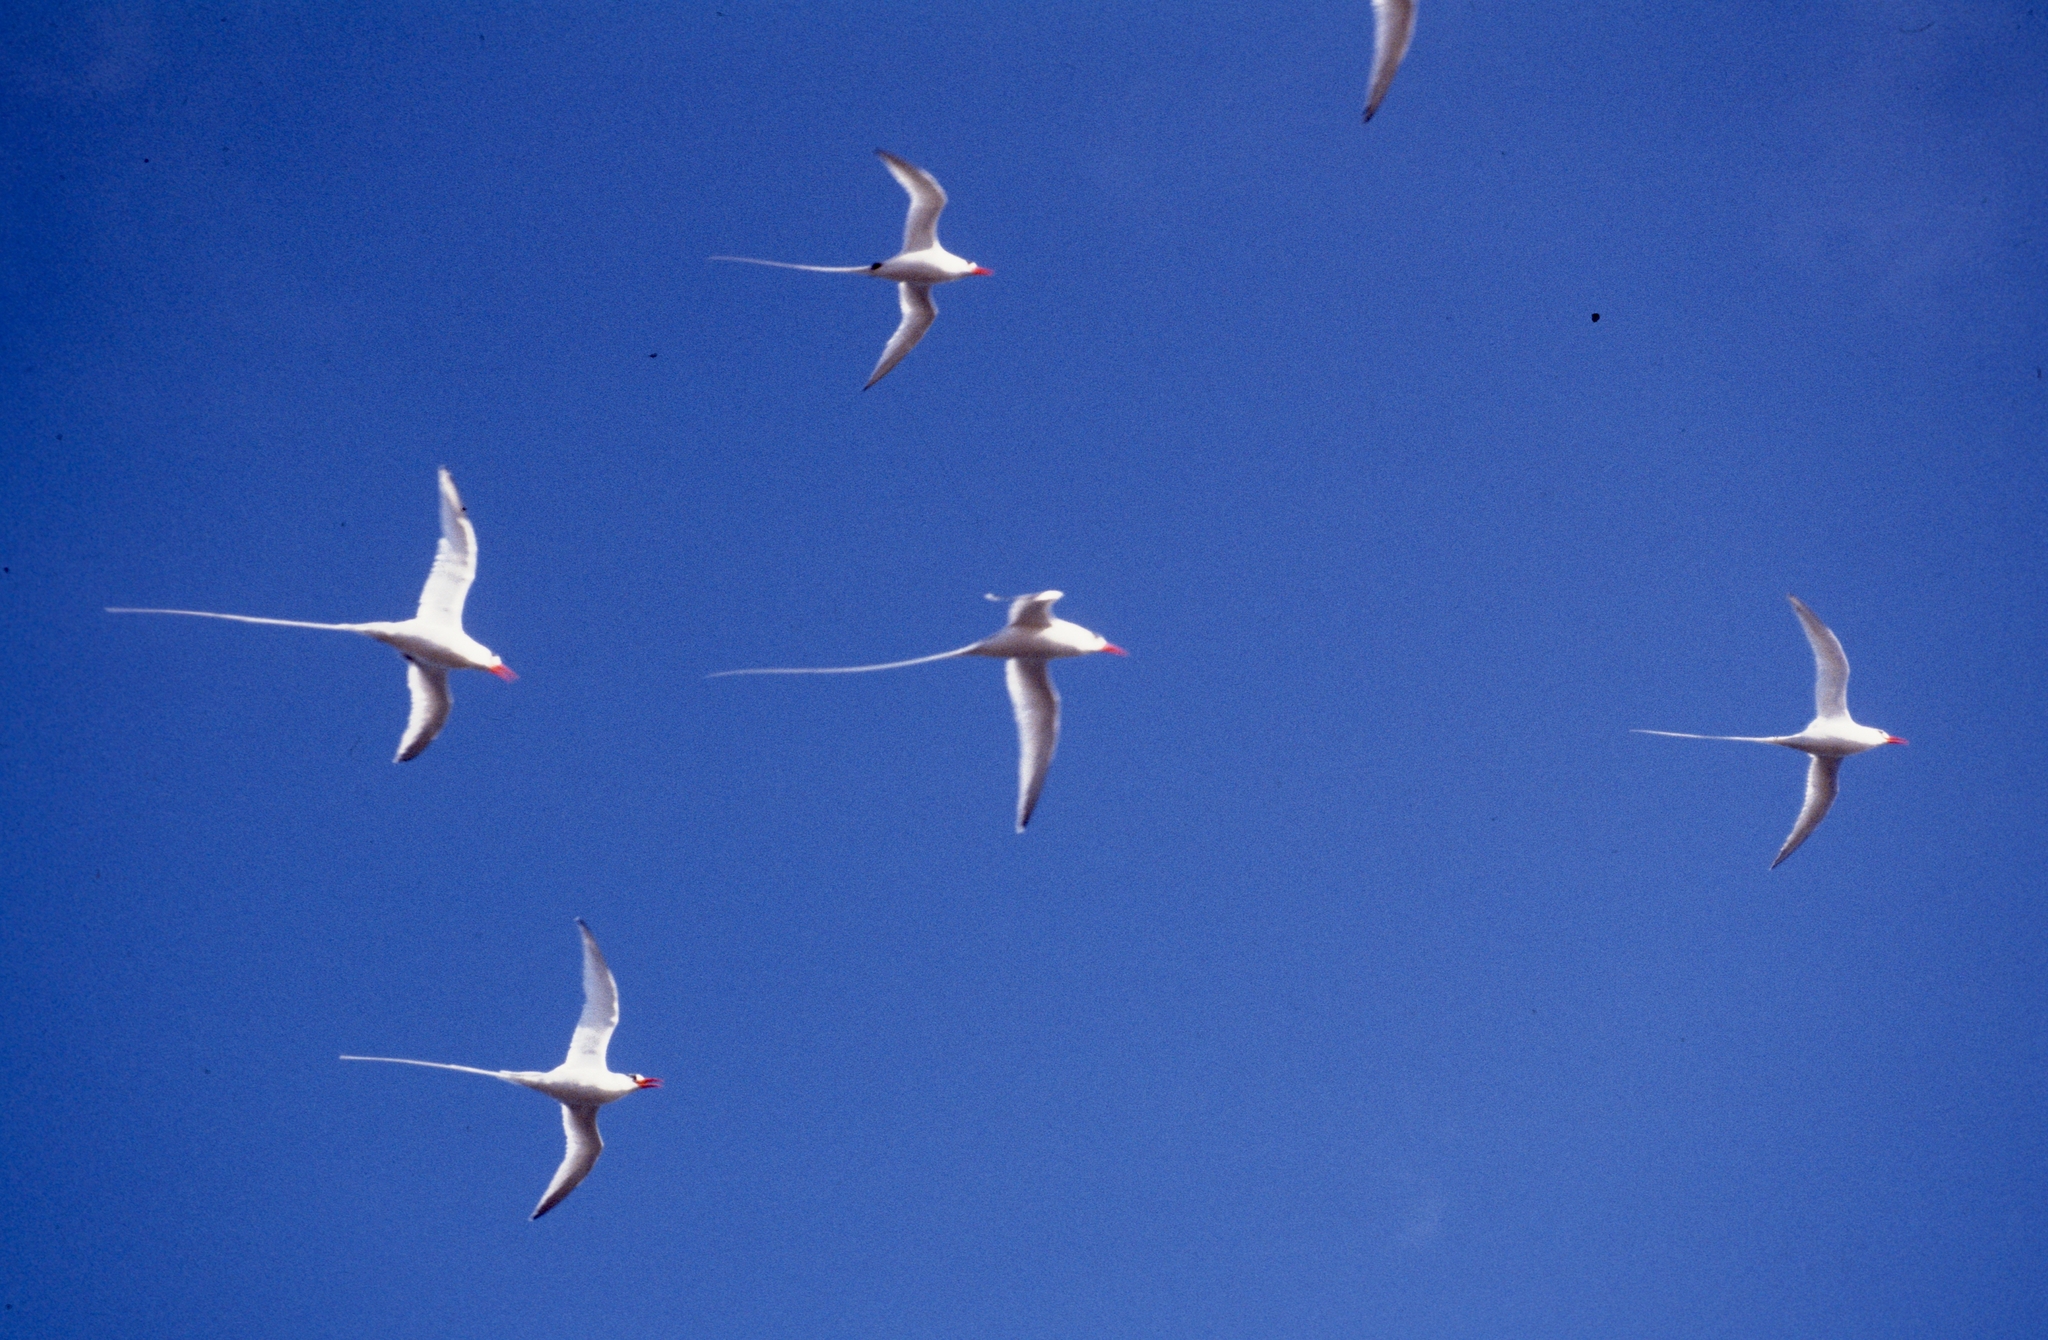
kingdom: Animalia
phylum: Chordata
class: Aves
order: Phaethontiformes
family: Phaethontidae
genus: Phaethon
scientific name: Phaethon aethereus
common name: Red-billed tropicbird
